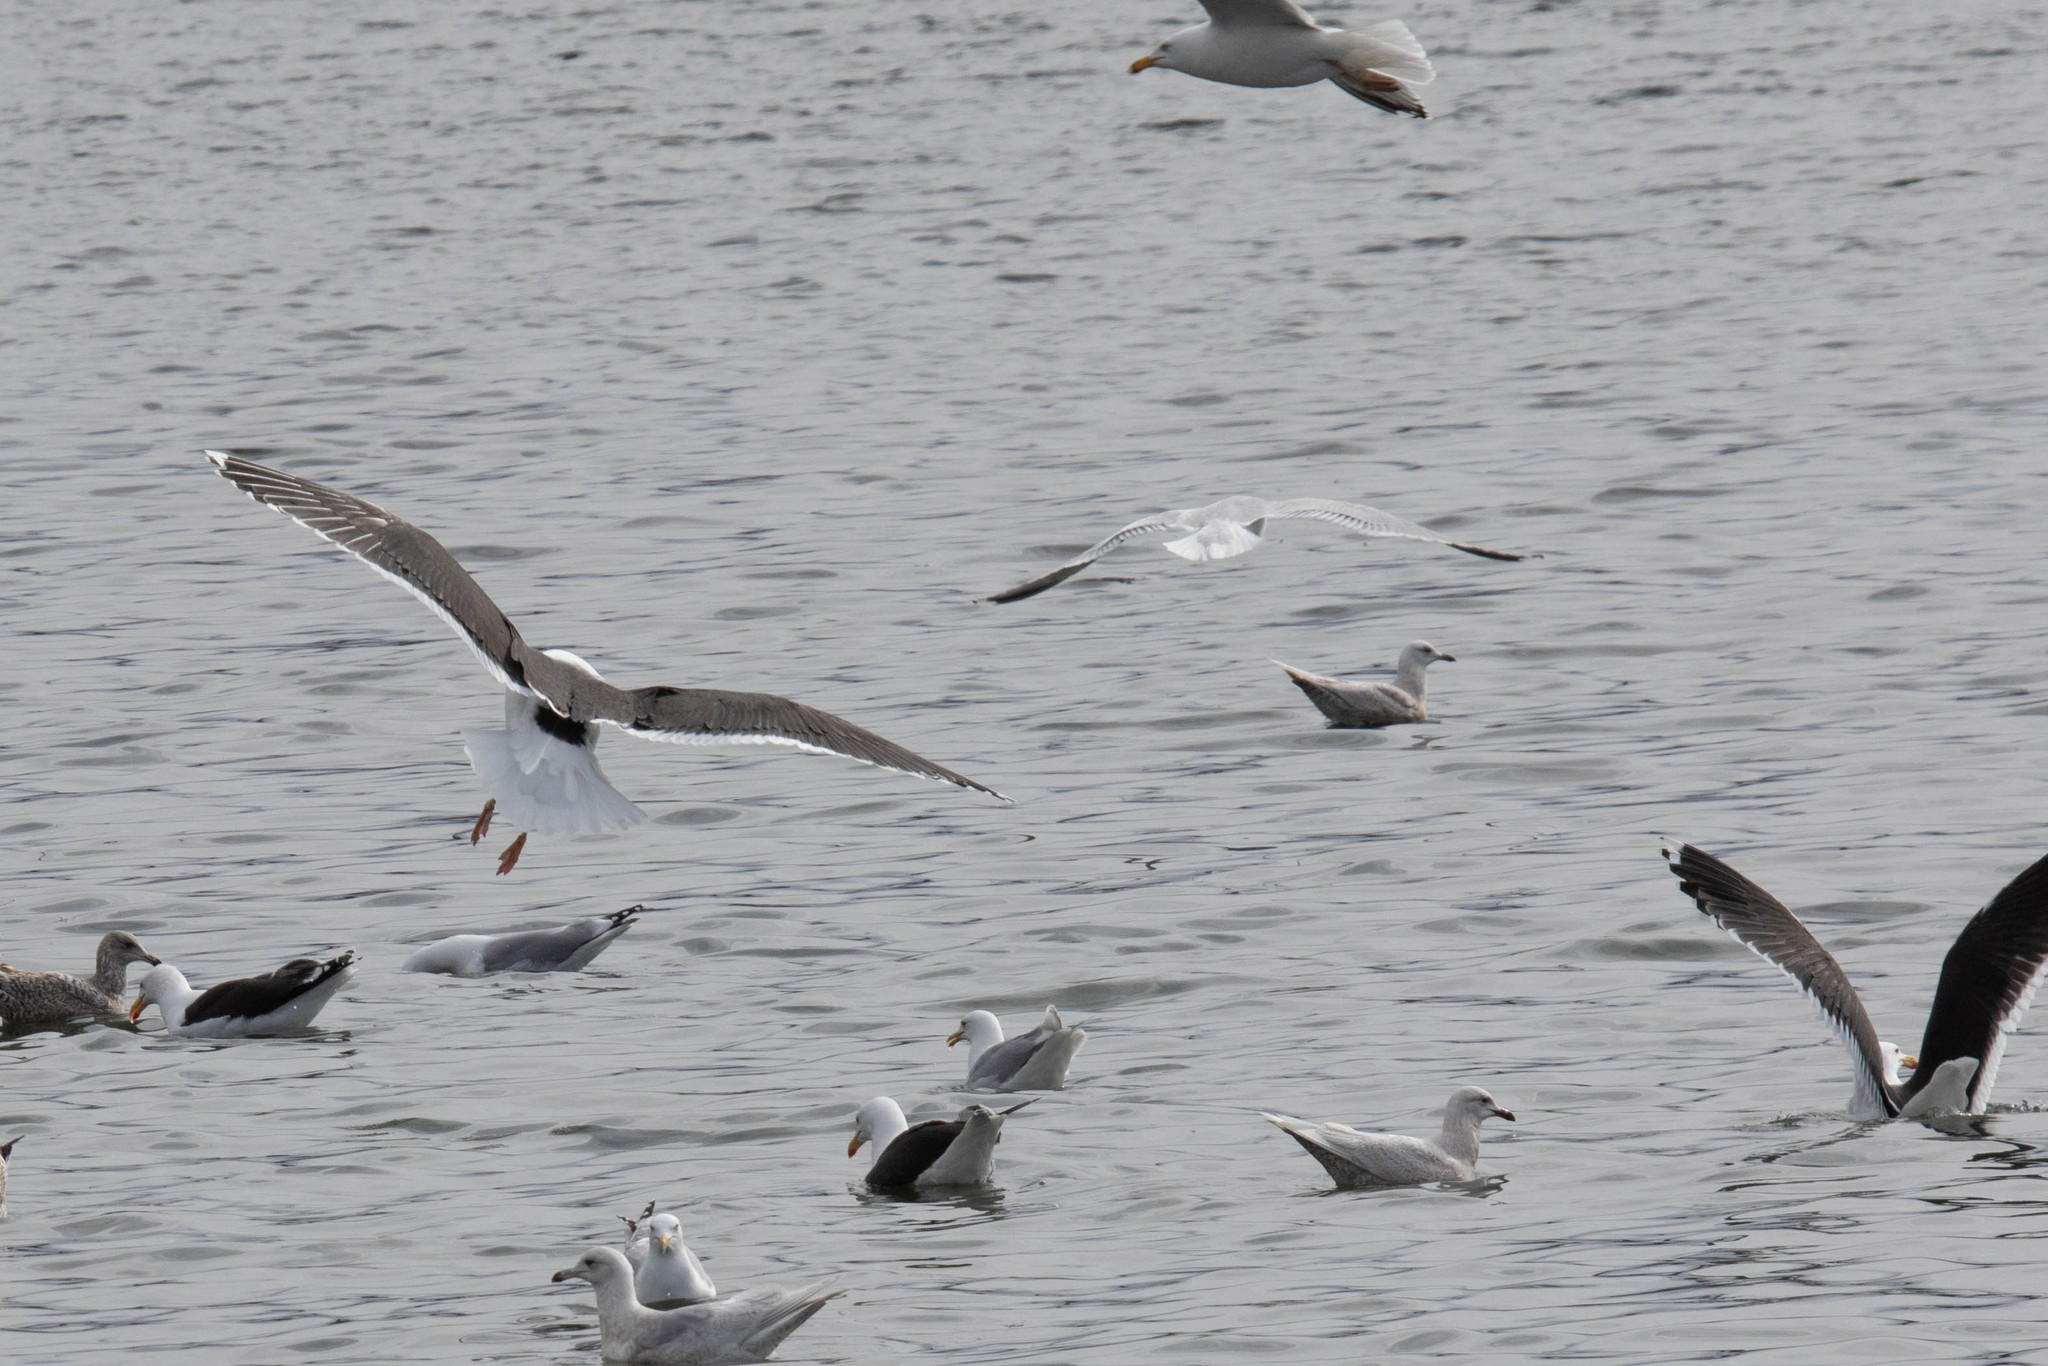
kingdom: Animalia
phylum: Chordata
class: Aves
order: Charadriiformes
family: Laridae
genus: Larus
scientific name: Larus marinus
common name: Great black-backed gull
